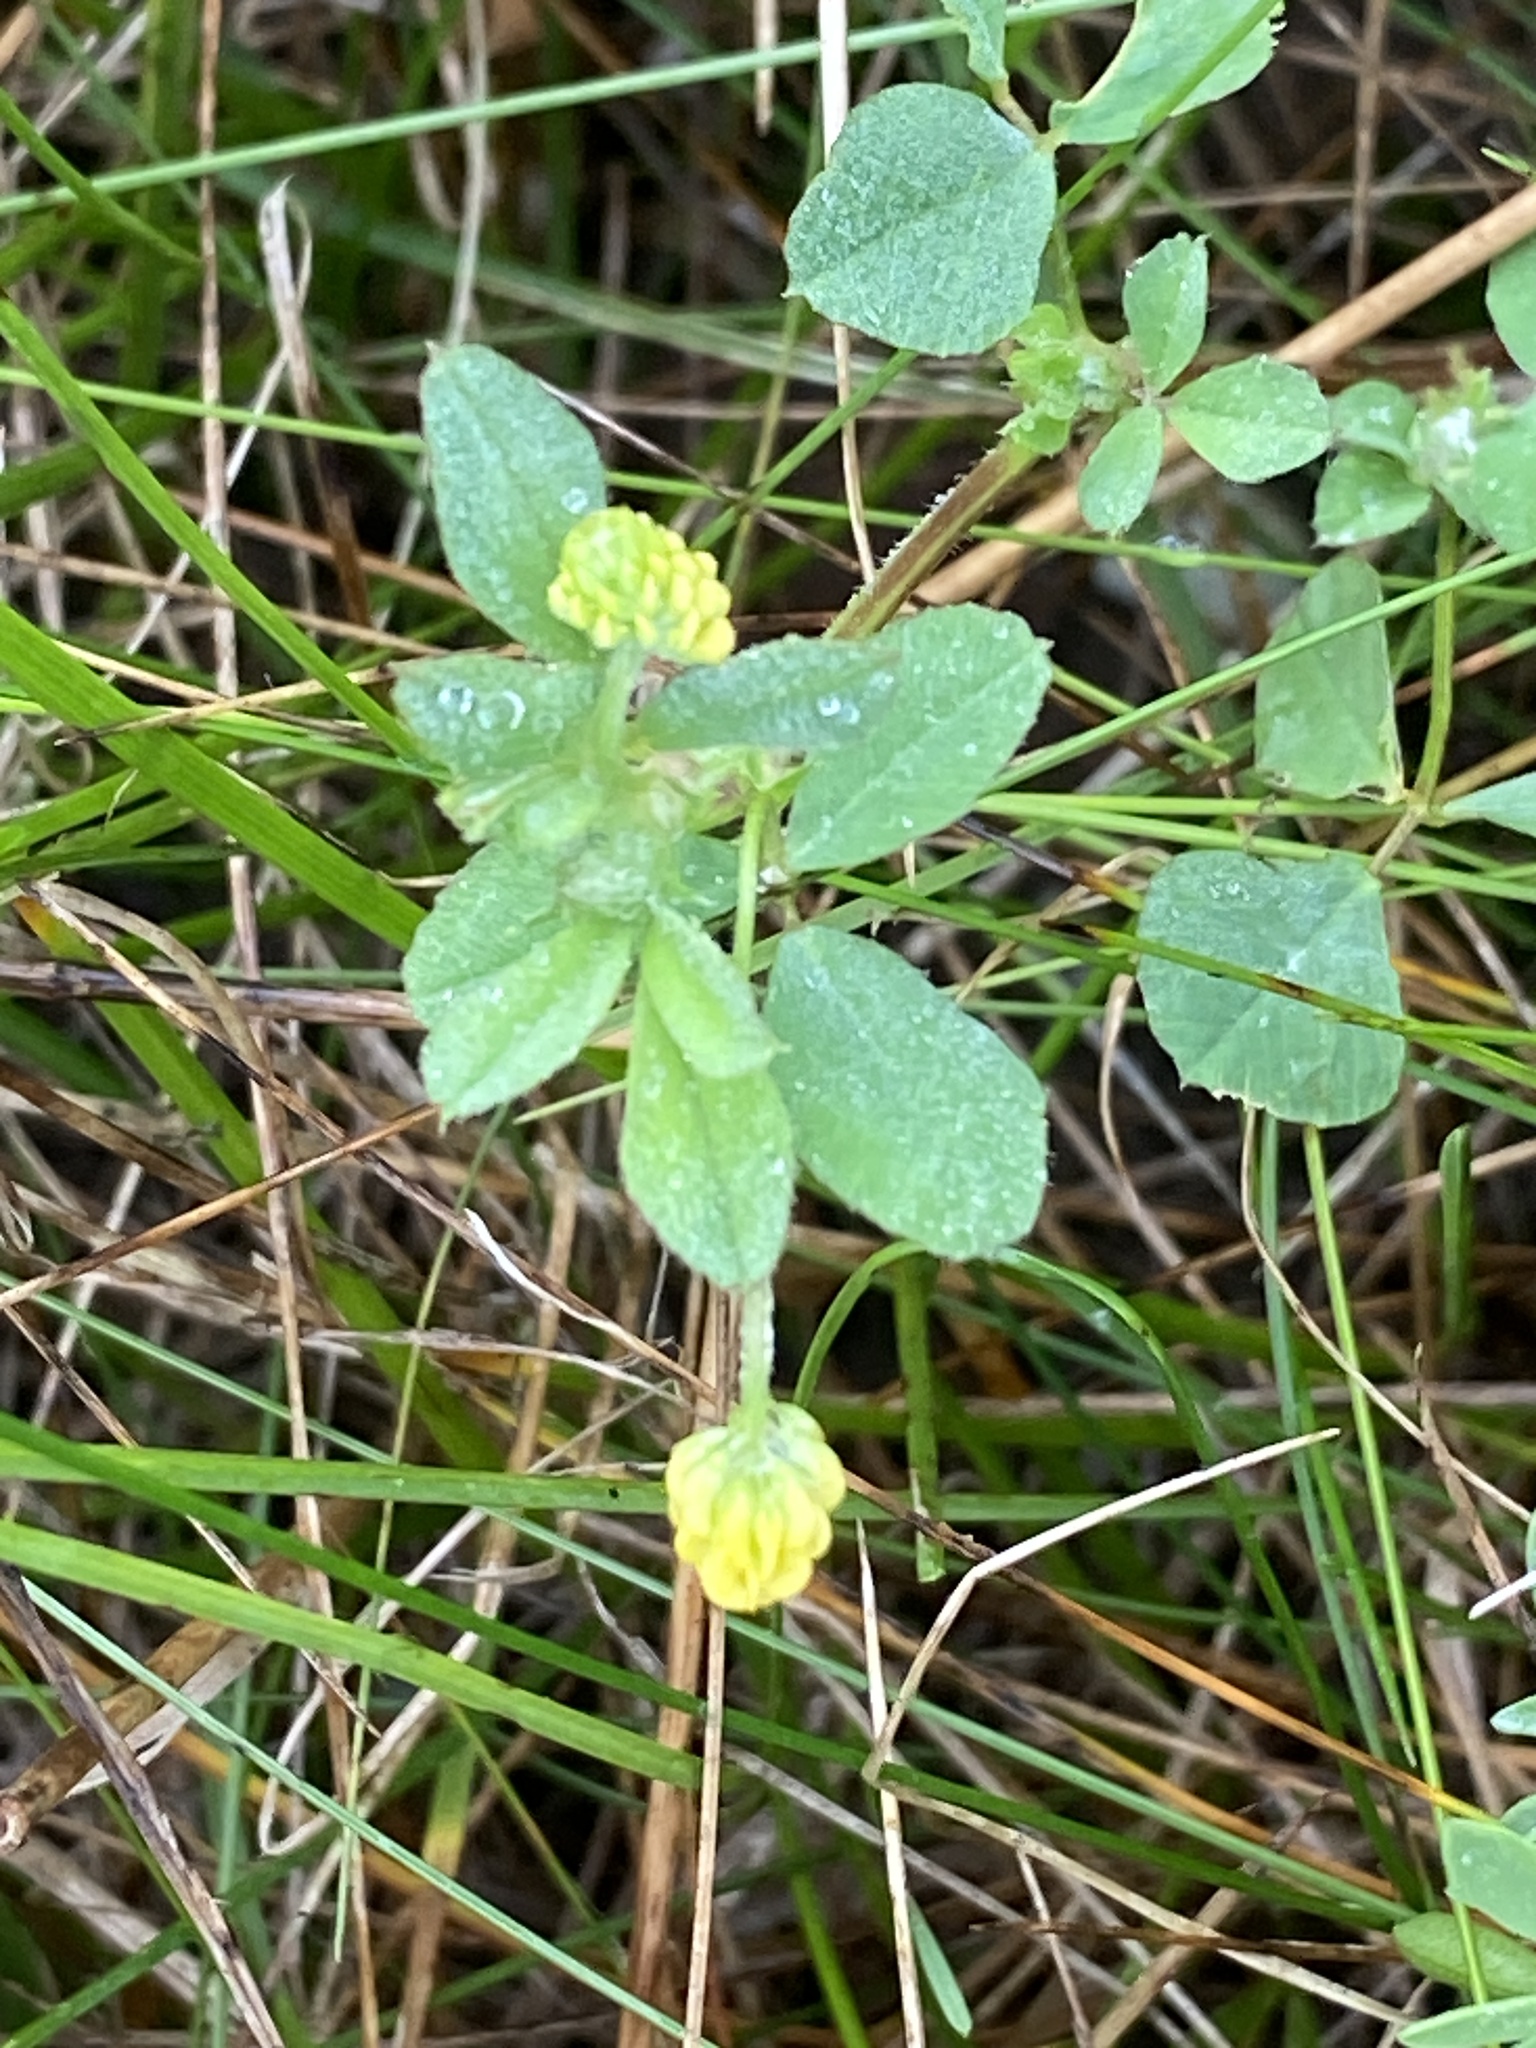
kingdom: Plantae
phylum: Tracheophyta
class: Magnoliopsida
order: Fabales
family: Fabaceae
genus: Medicago
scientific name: Medicago lupulina
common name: Black medick
